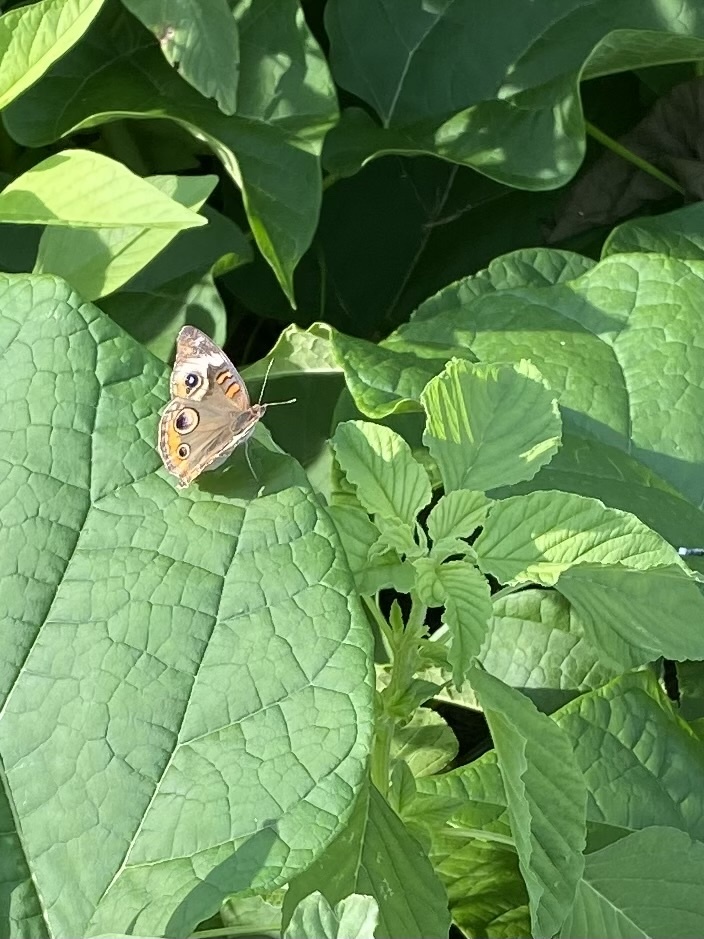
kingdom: Animalia
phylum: Arthropoda
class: Insecta
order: Lepidoptera
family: Nymphalidae
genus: Junonia
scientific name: Junonia coenia
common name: Common buckeye
